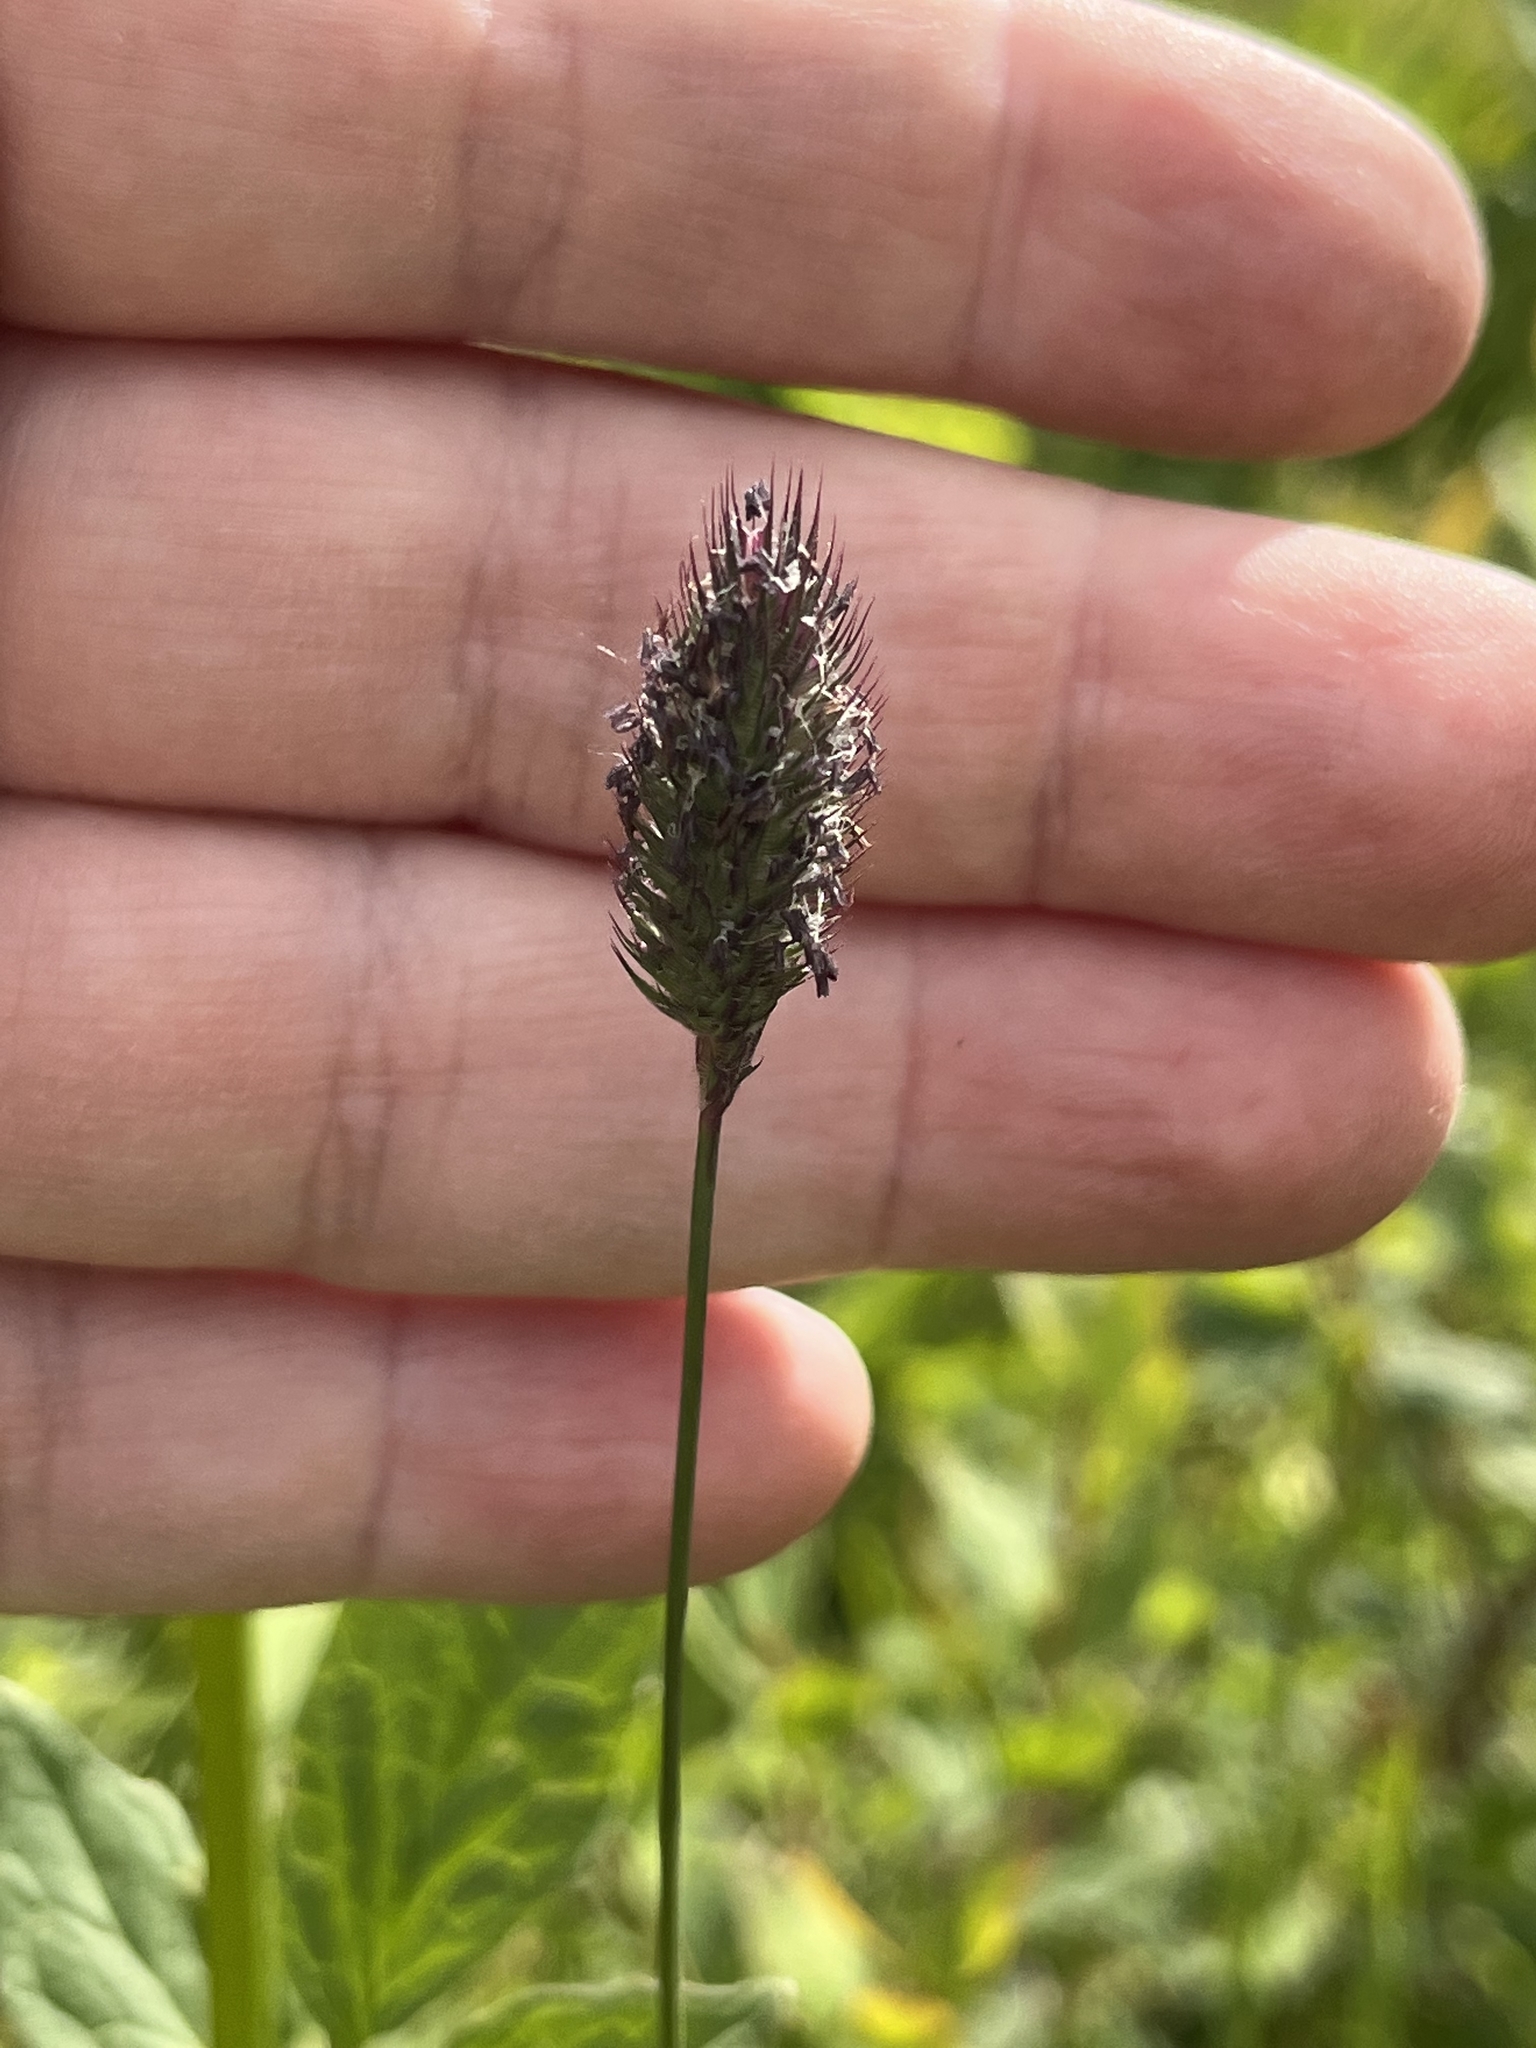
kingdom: Plantae
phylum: Tracheophyta
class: Liliopsida
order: Poales
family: Poaceae
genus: Phleum
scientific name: Phleum alpinum
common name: Alpine cat's-tail
